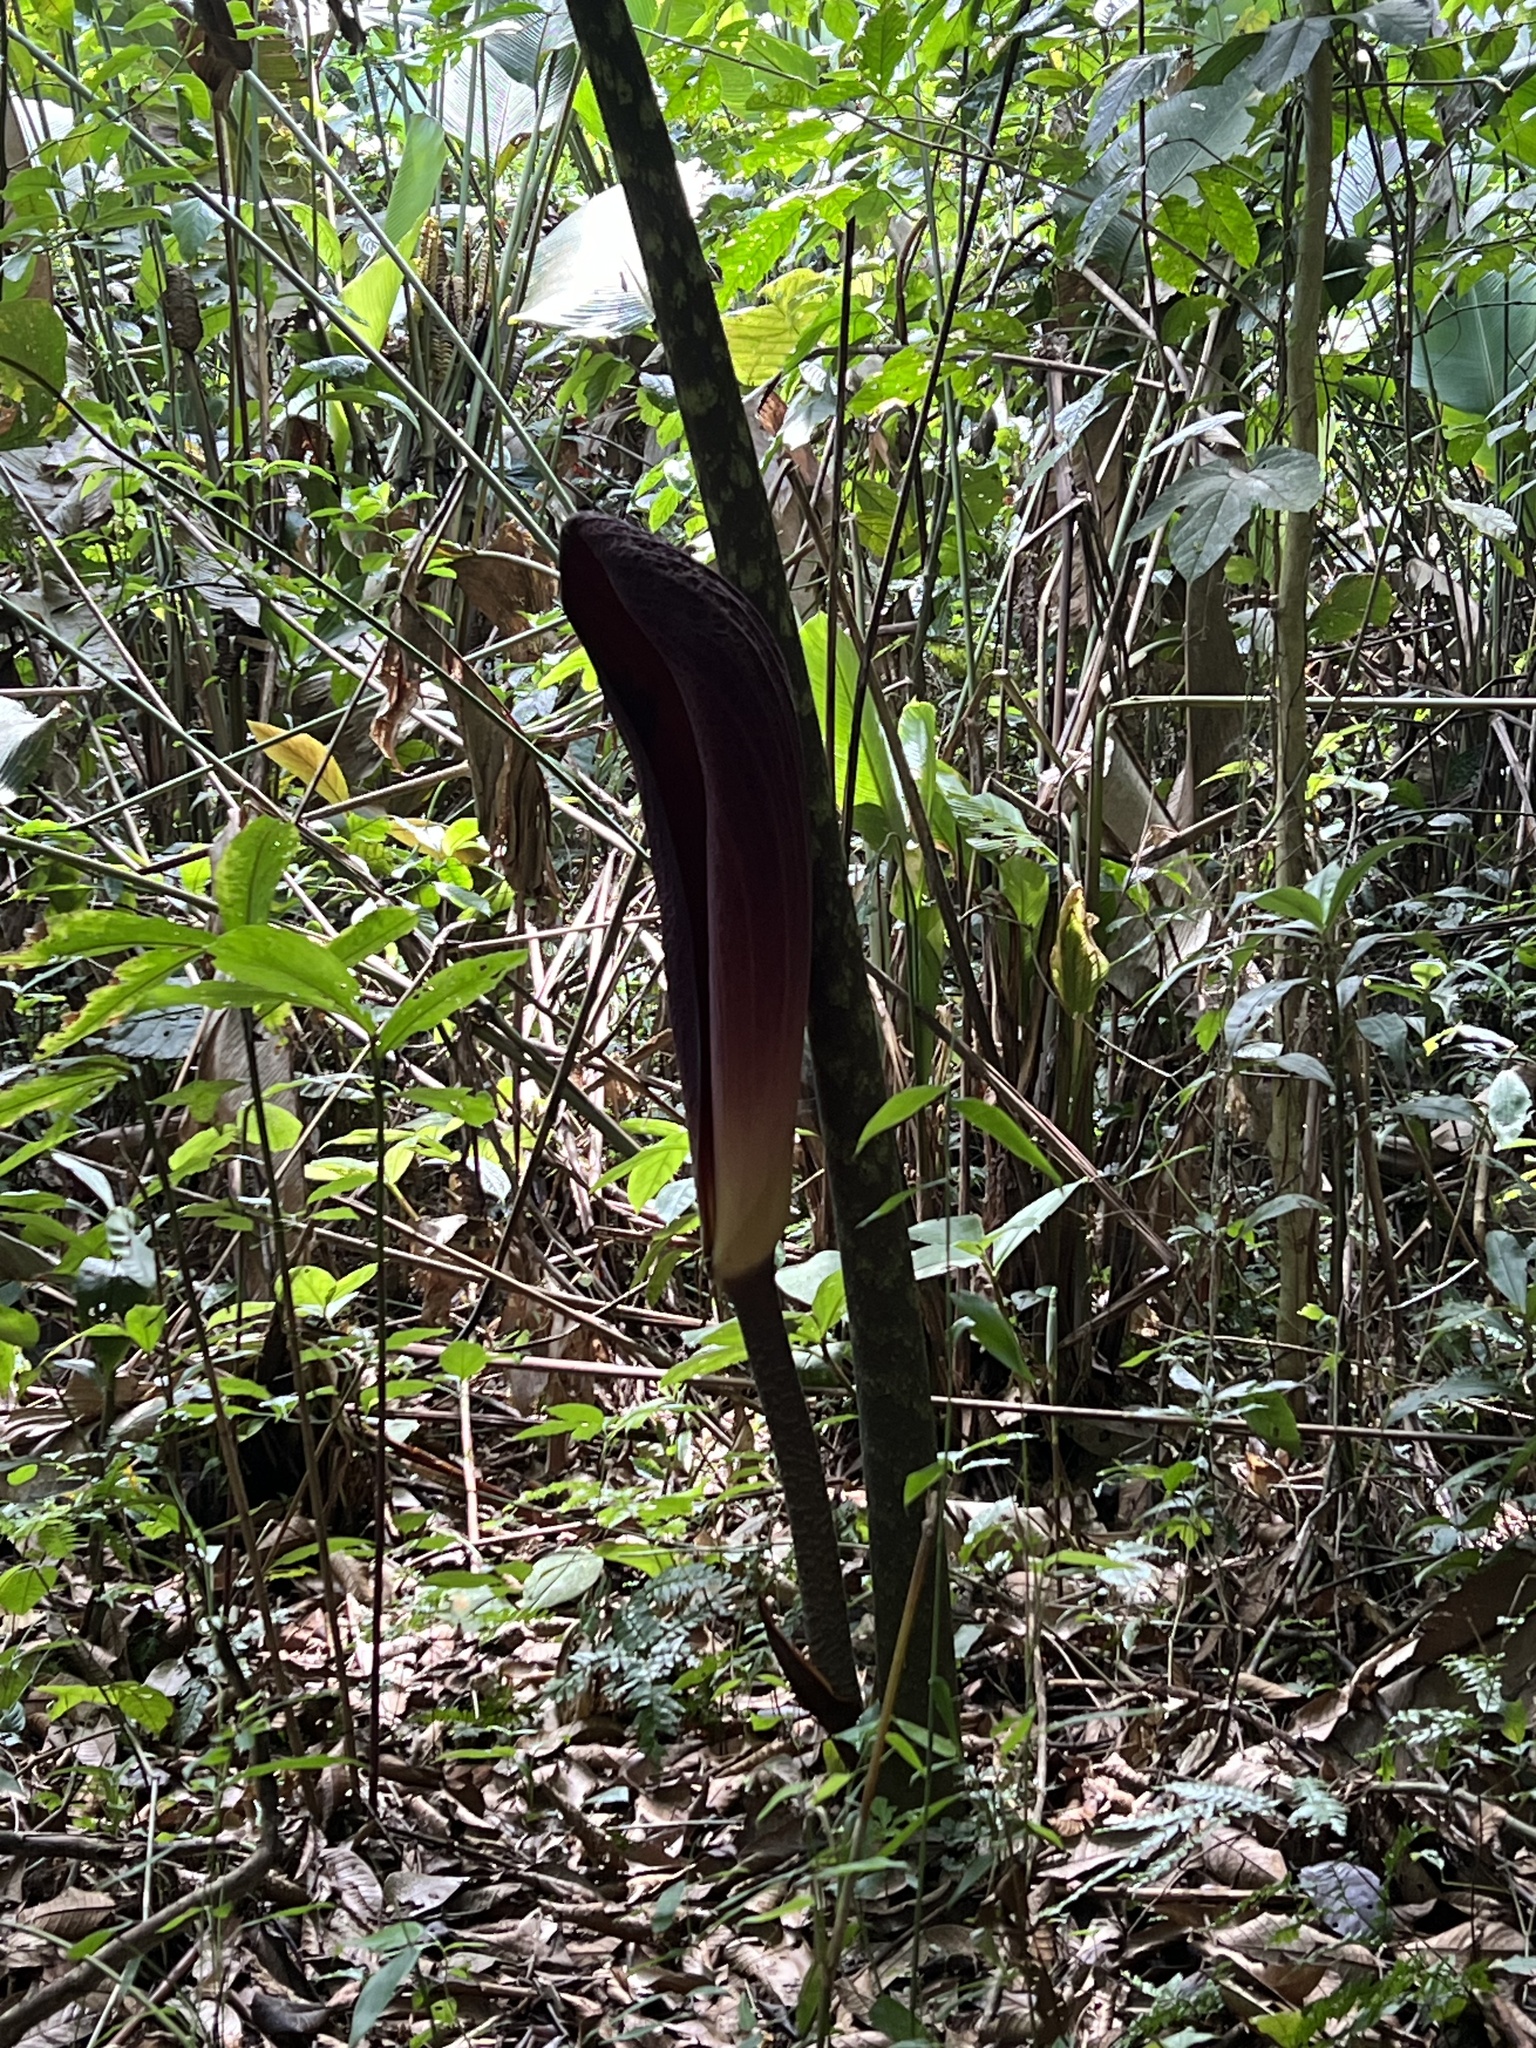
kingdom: Plantae
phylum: Tracheophyta
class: Liliopsida
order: Alismatales
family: Araceae
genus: Dracontium
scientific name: Dracontium gigas
